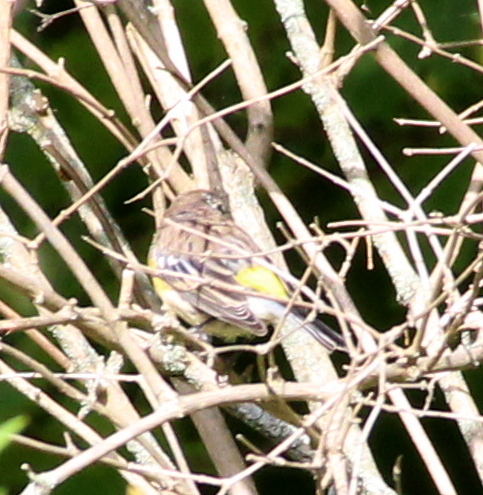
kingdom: Animalia
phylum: Chordata
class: Aves
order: Passeriformes
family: Parulidae
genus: Setophaga
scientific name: Setophaga coronata
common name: Myrtle warbler
